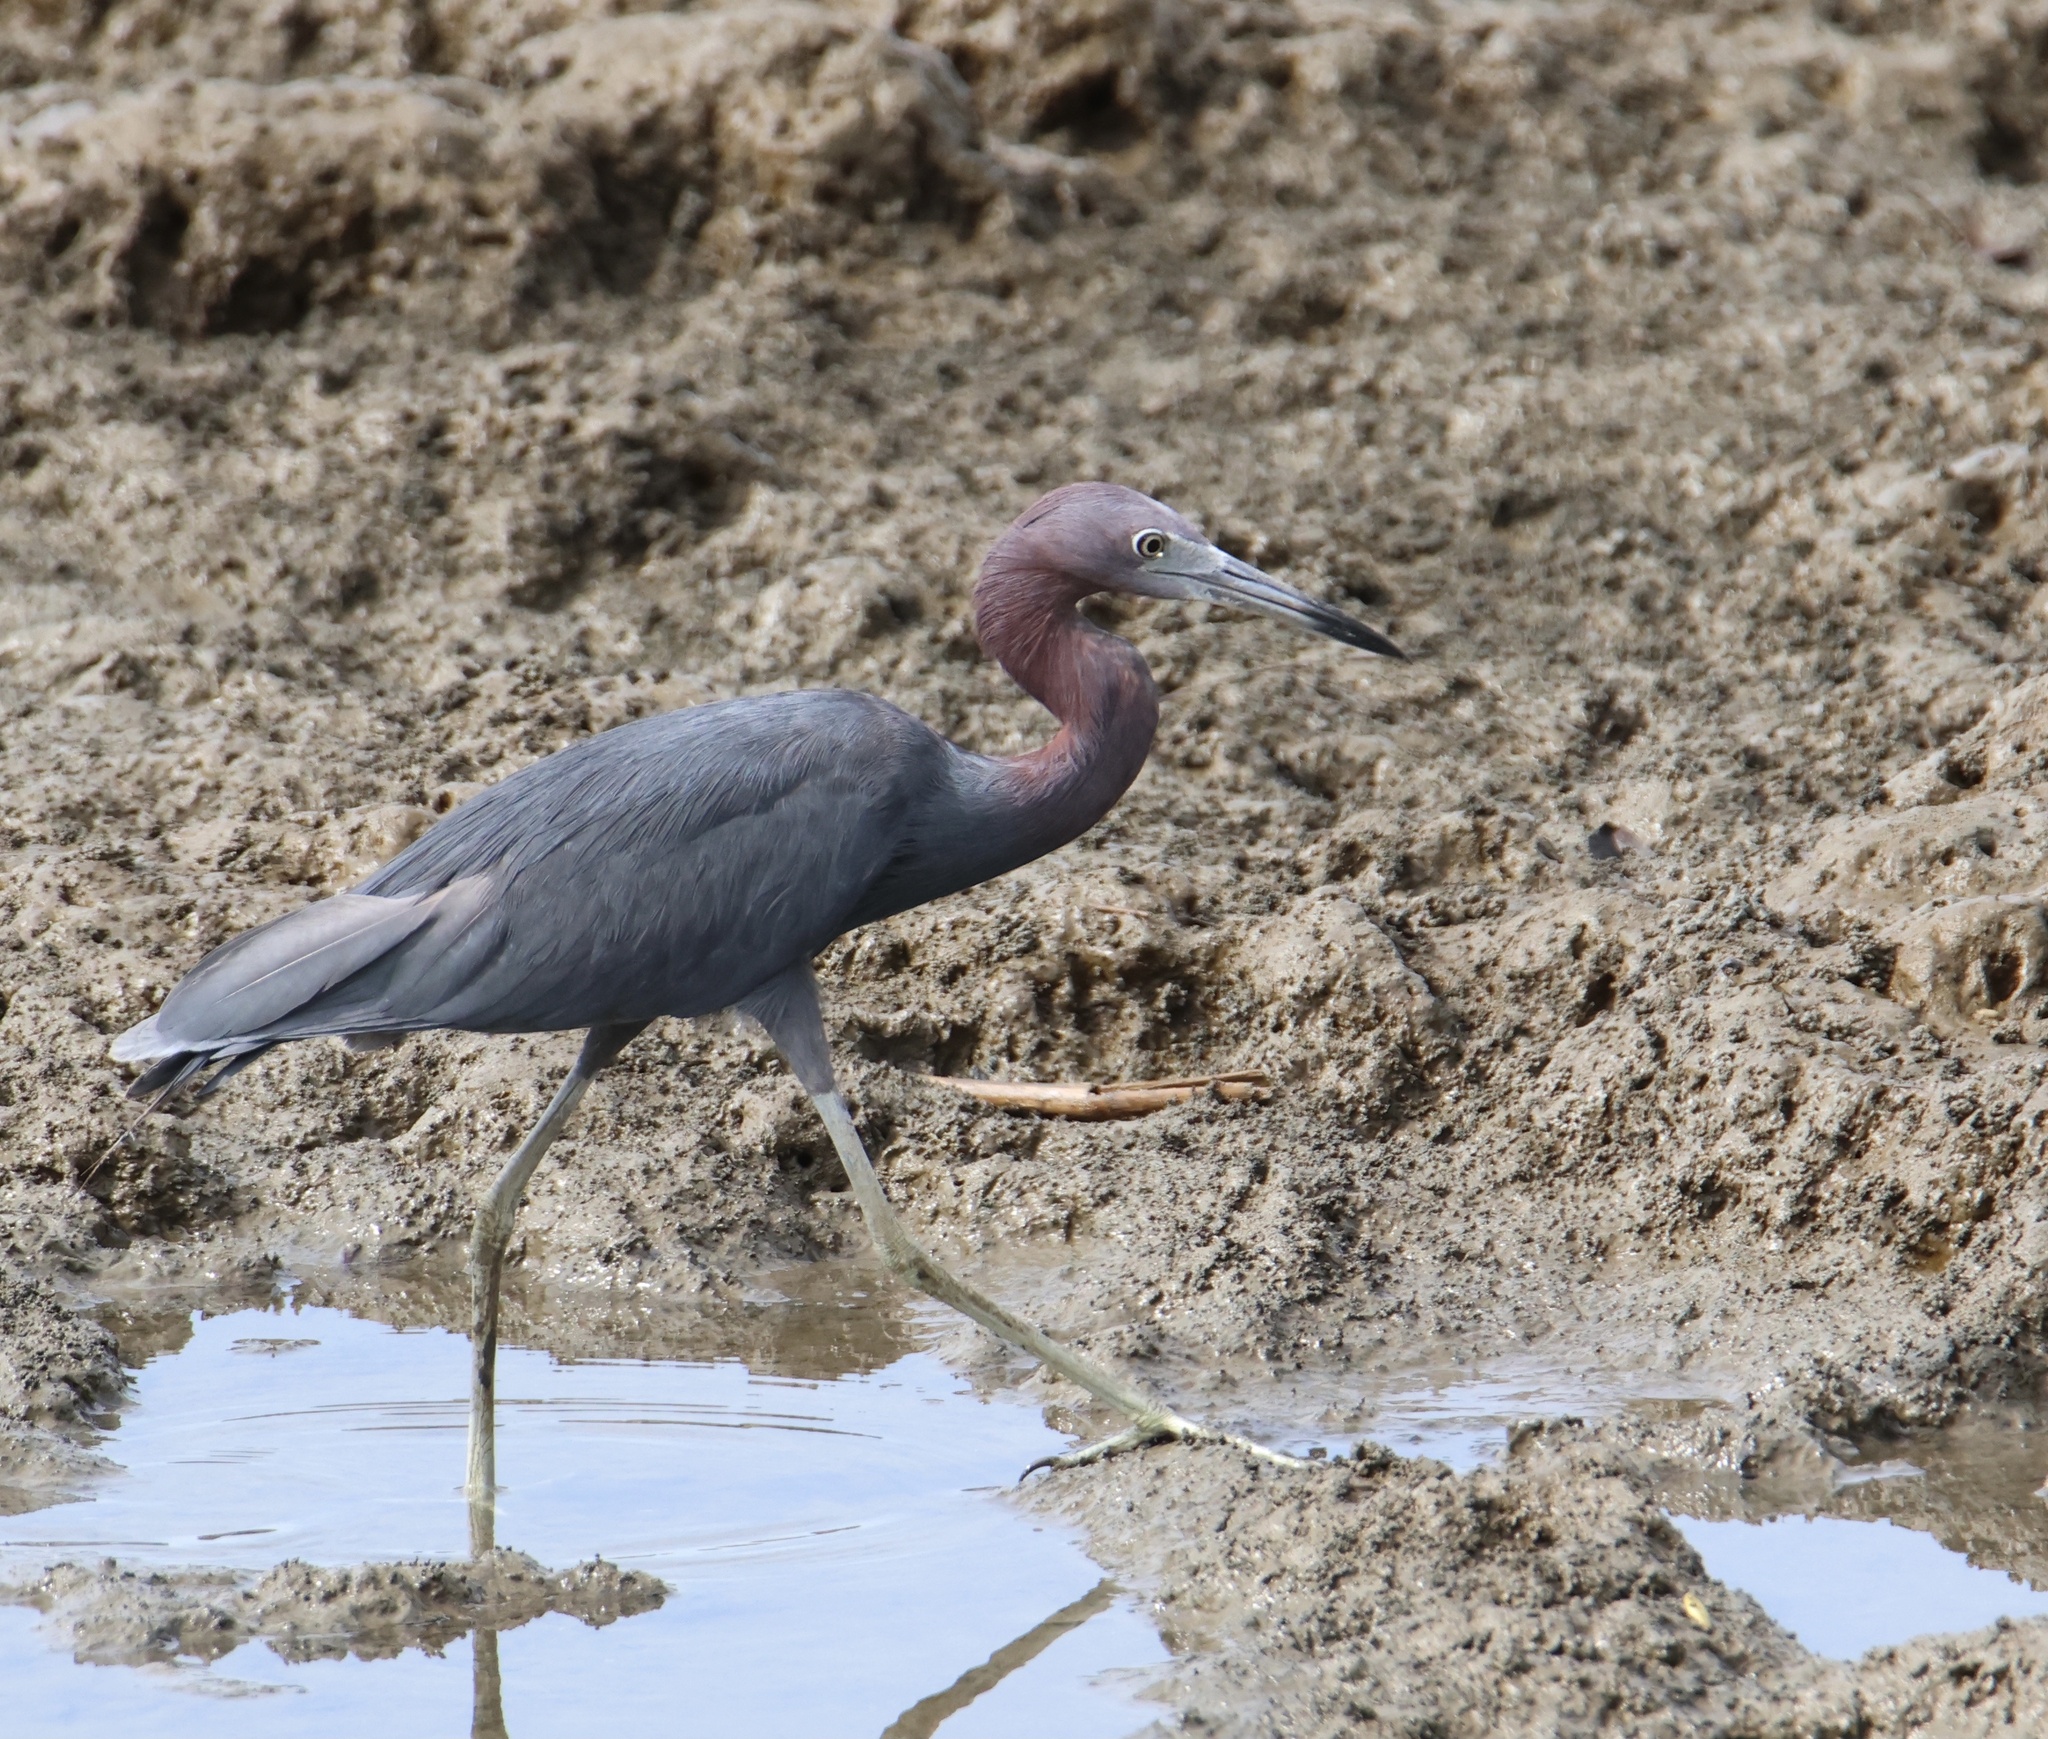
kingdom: Animalia
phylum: Chordata
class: Aves
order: Pelecaniformes
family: Ardeidae
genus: Egretta
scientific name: Egretta caerulea
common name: Little blue heron
